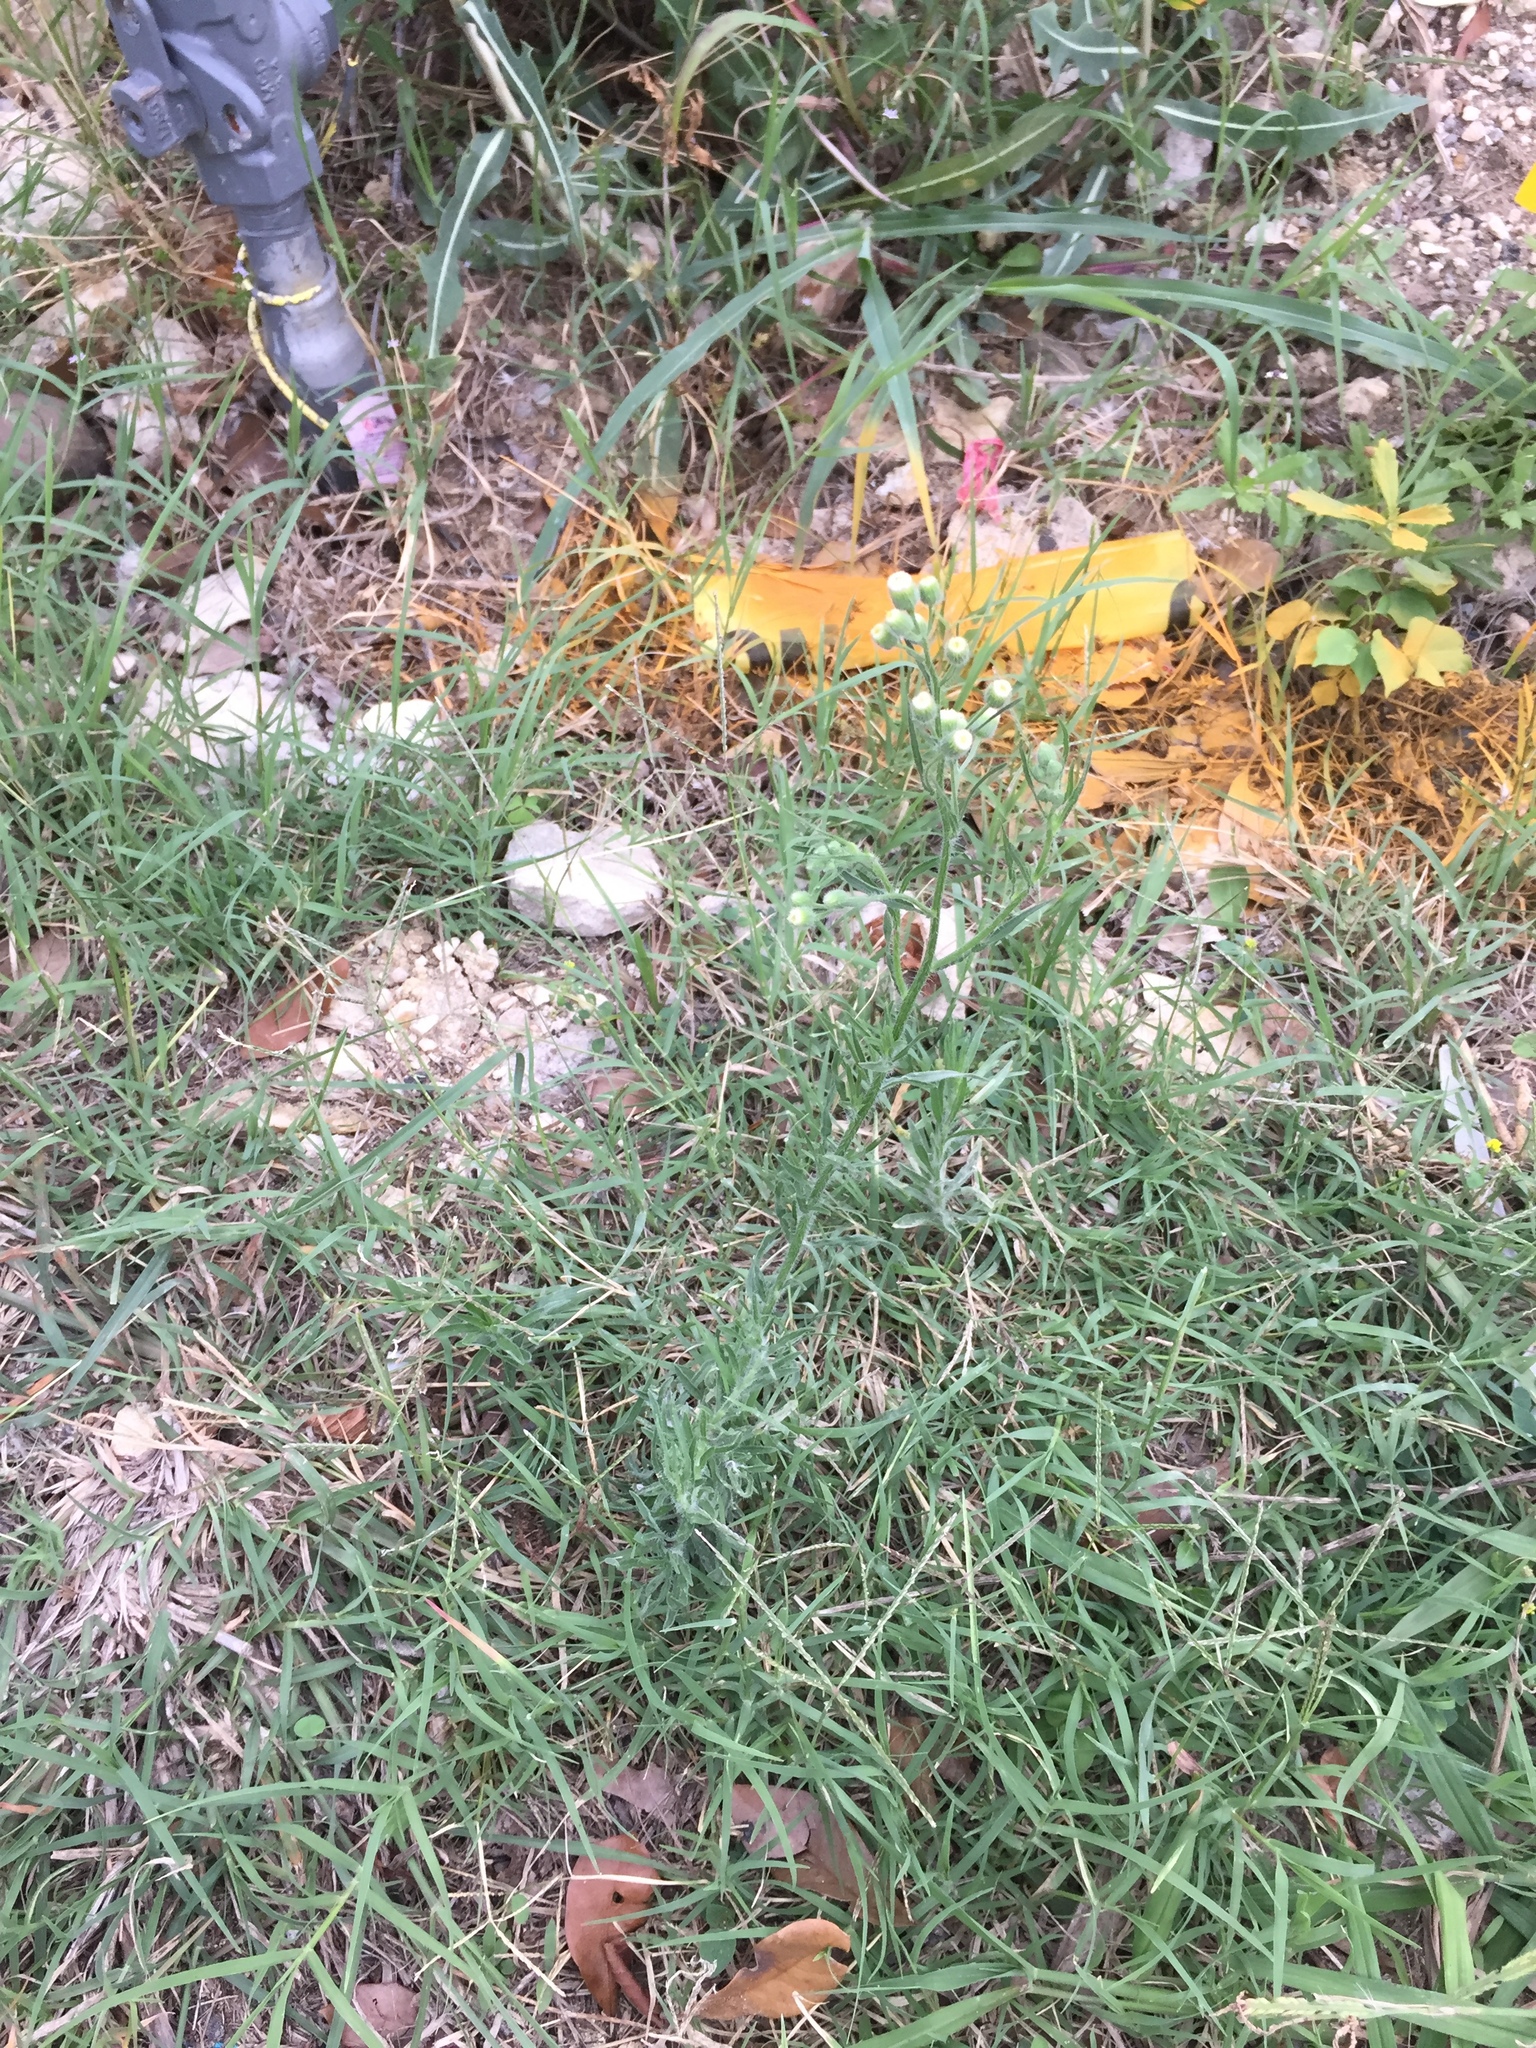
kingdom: Plantae
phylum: Tracheophyta
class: Magnoliopsida
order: Asterales
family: Asteraceae
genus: Erigeron
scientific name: Erigeron bonariensis
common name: Argentine fleabane
